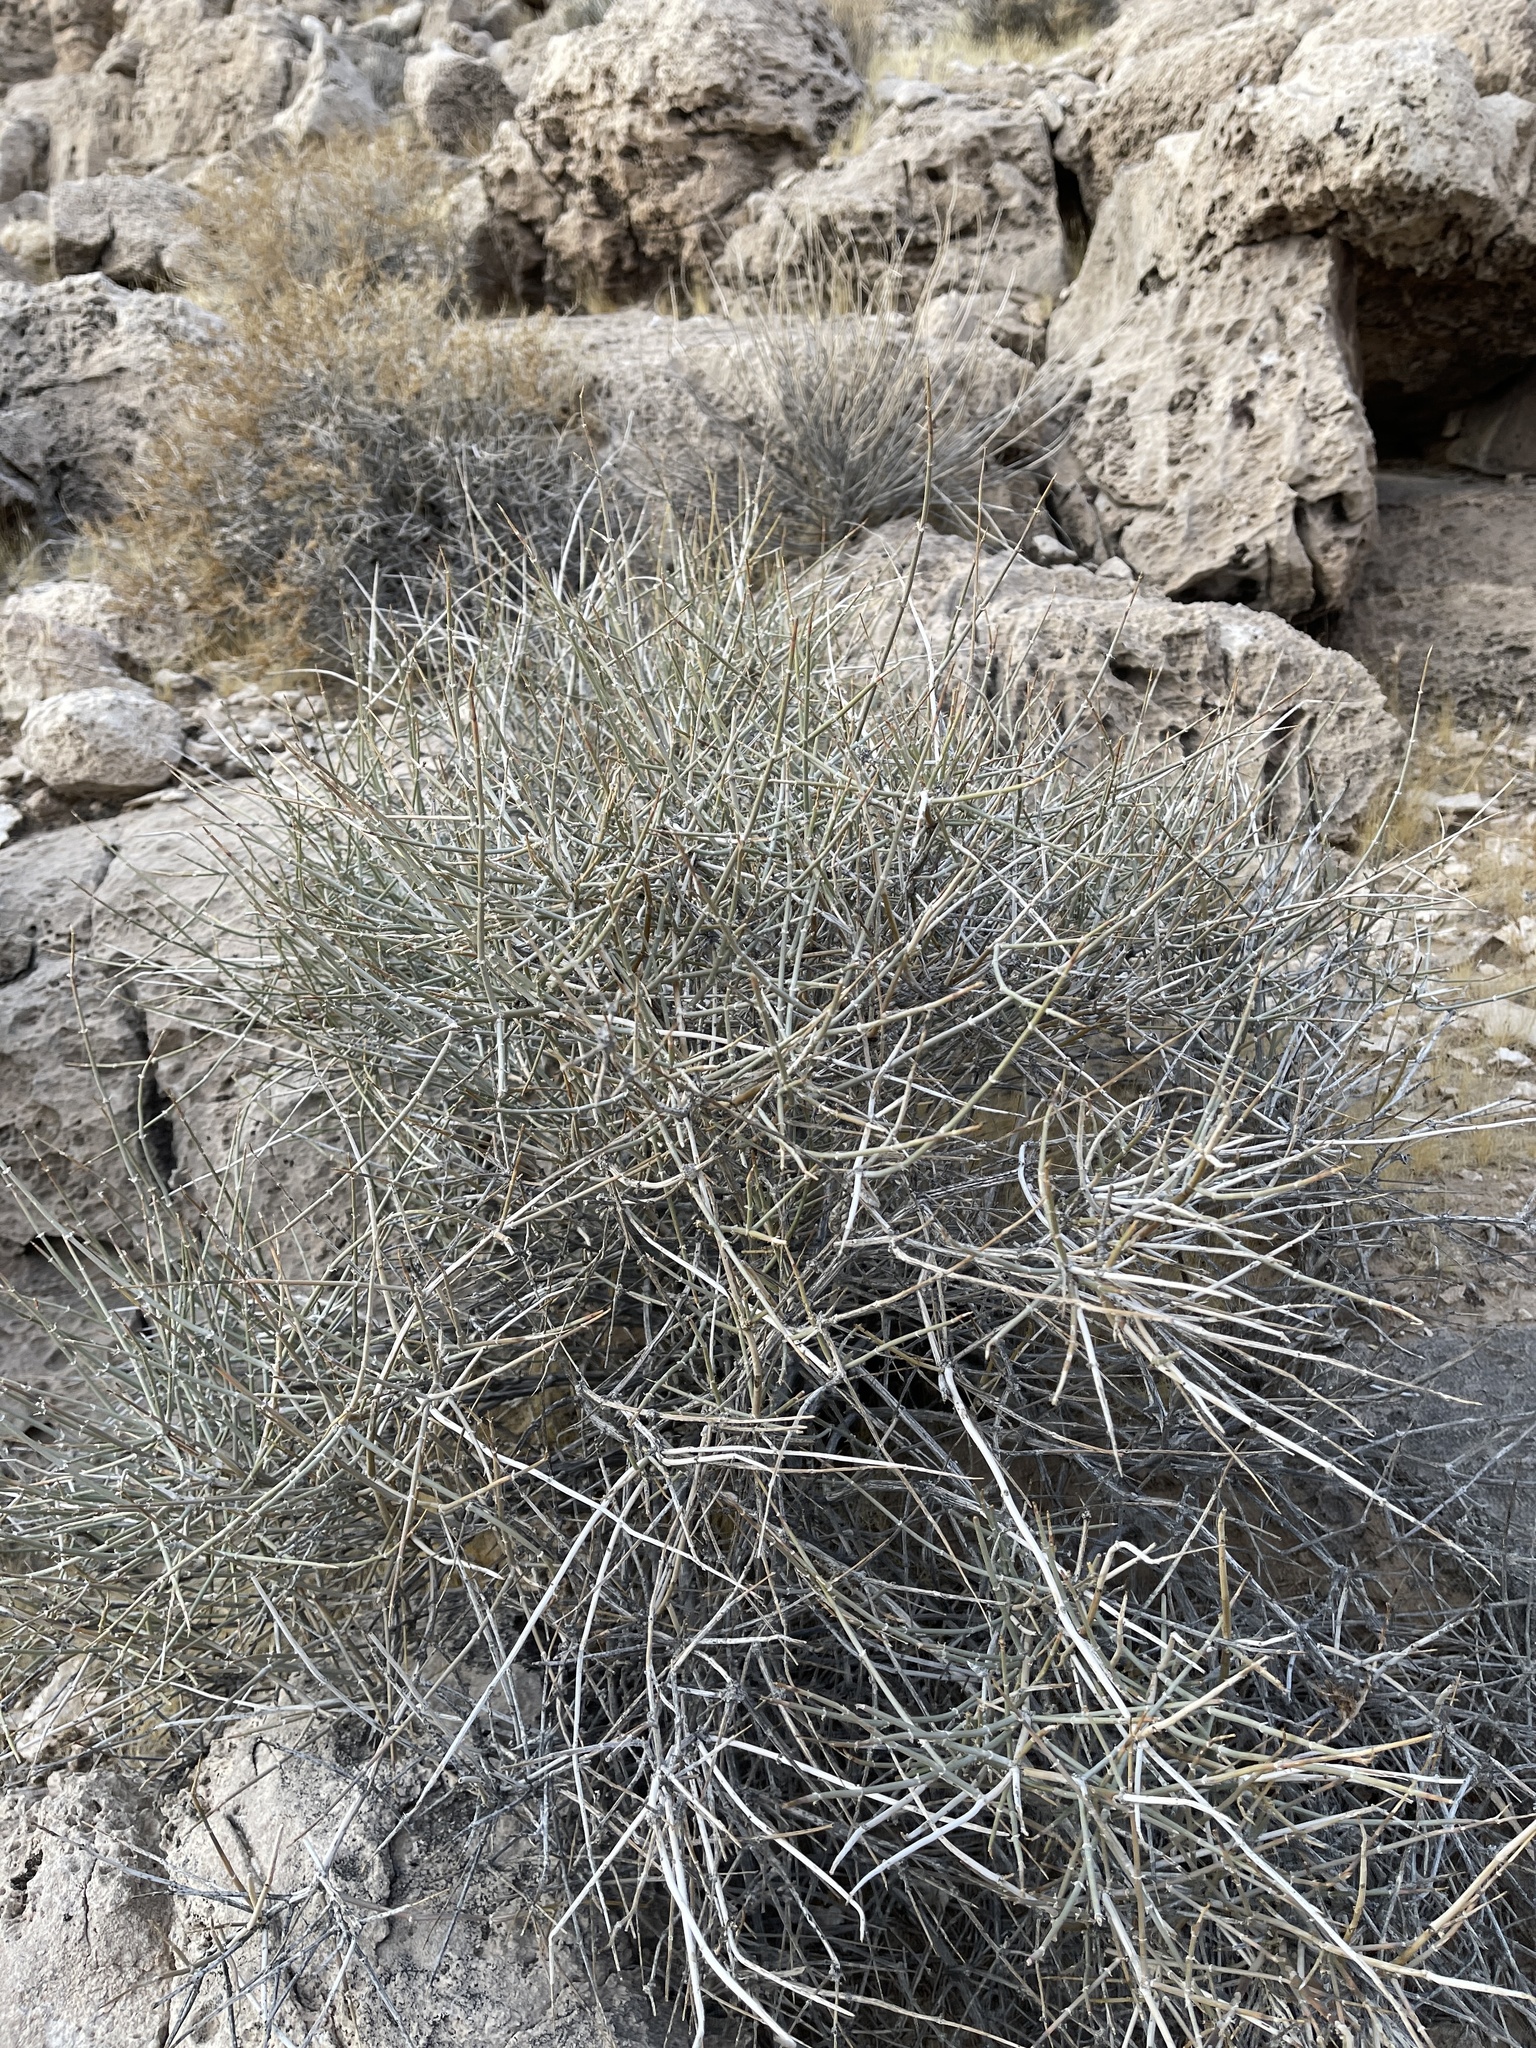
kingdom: Plantae
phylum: Tracheophyta
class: Gnetopsida
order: Ephedrales
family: Ephedraceae
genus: Ephedra
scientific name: Ephedra nevadensis
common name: Gray ephedra
